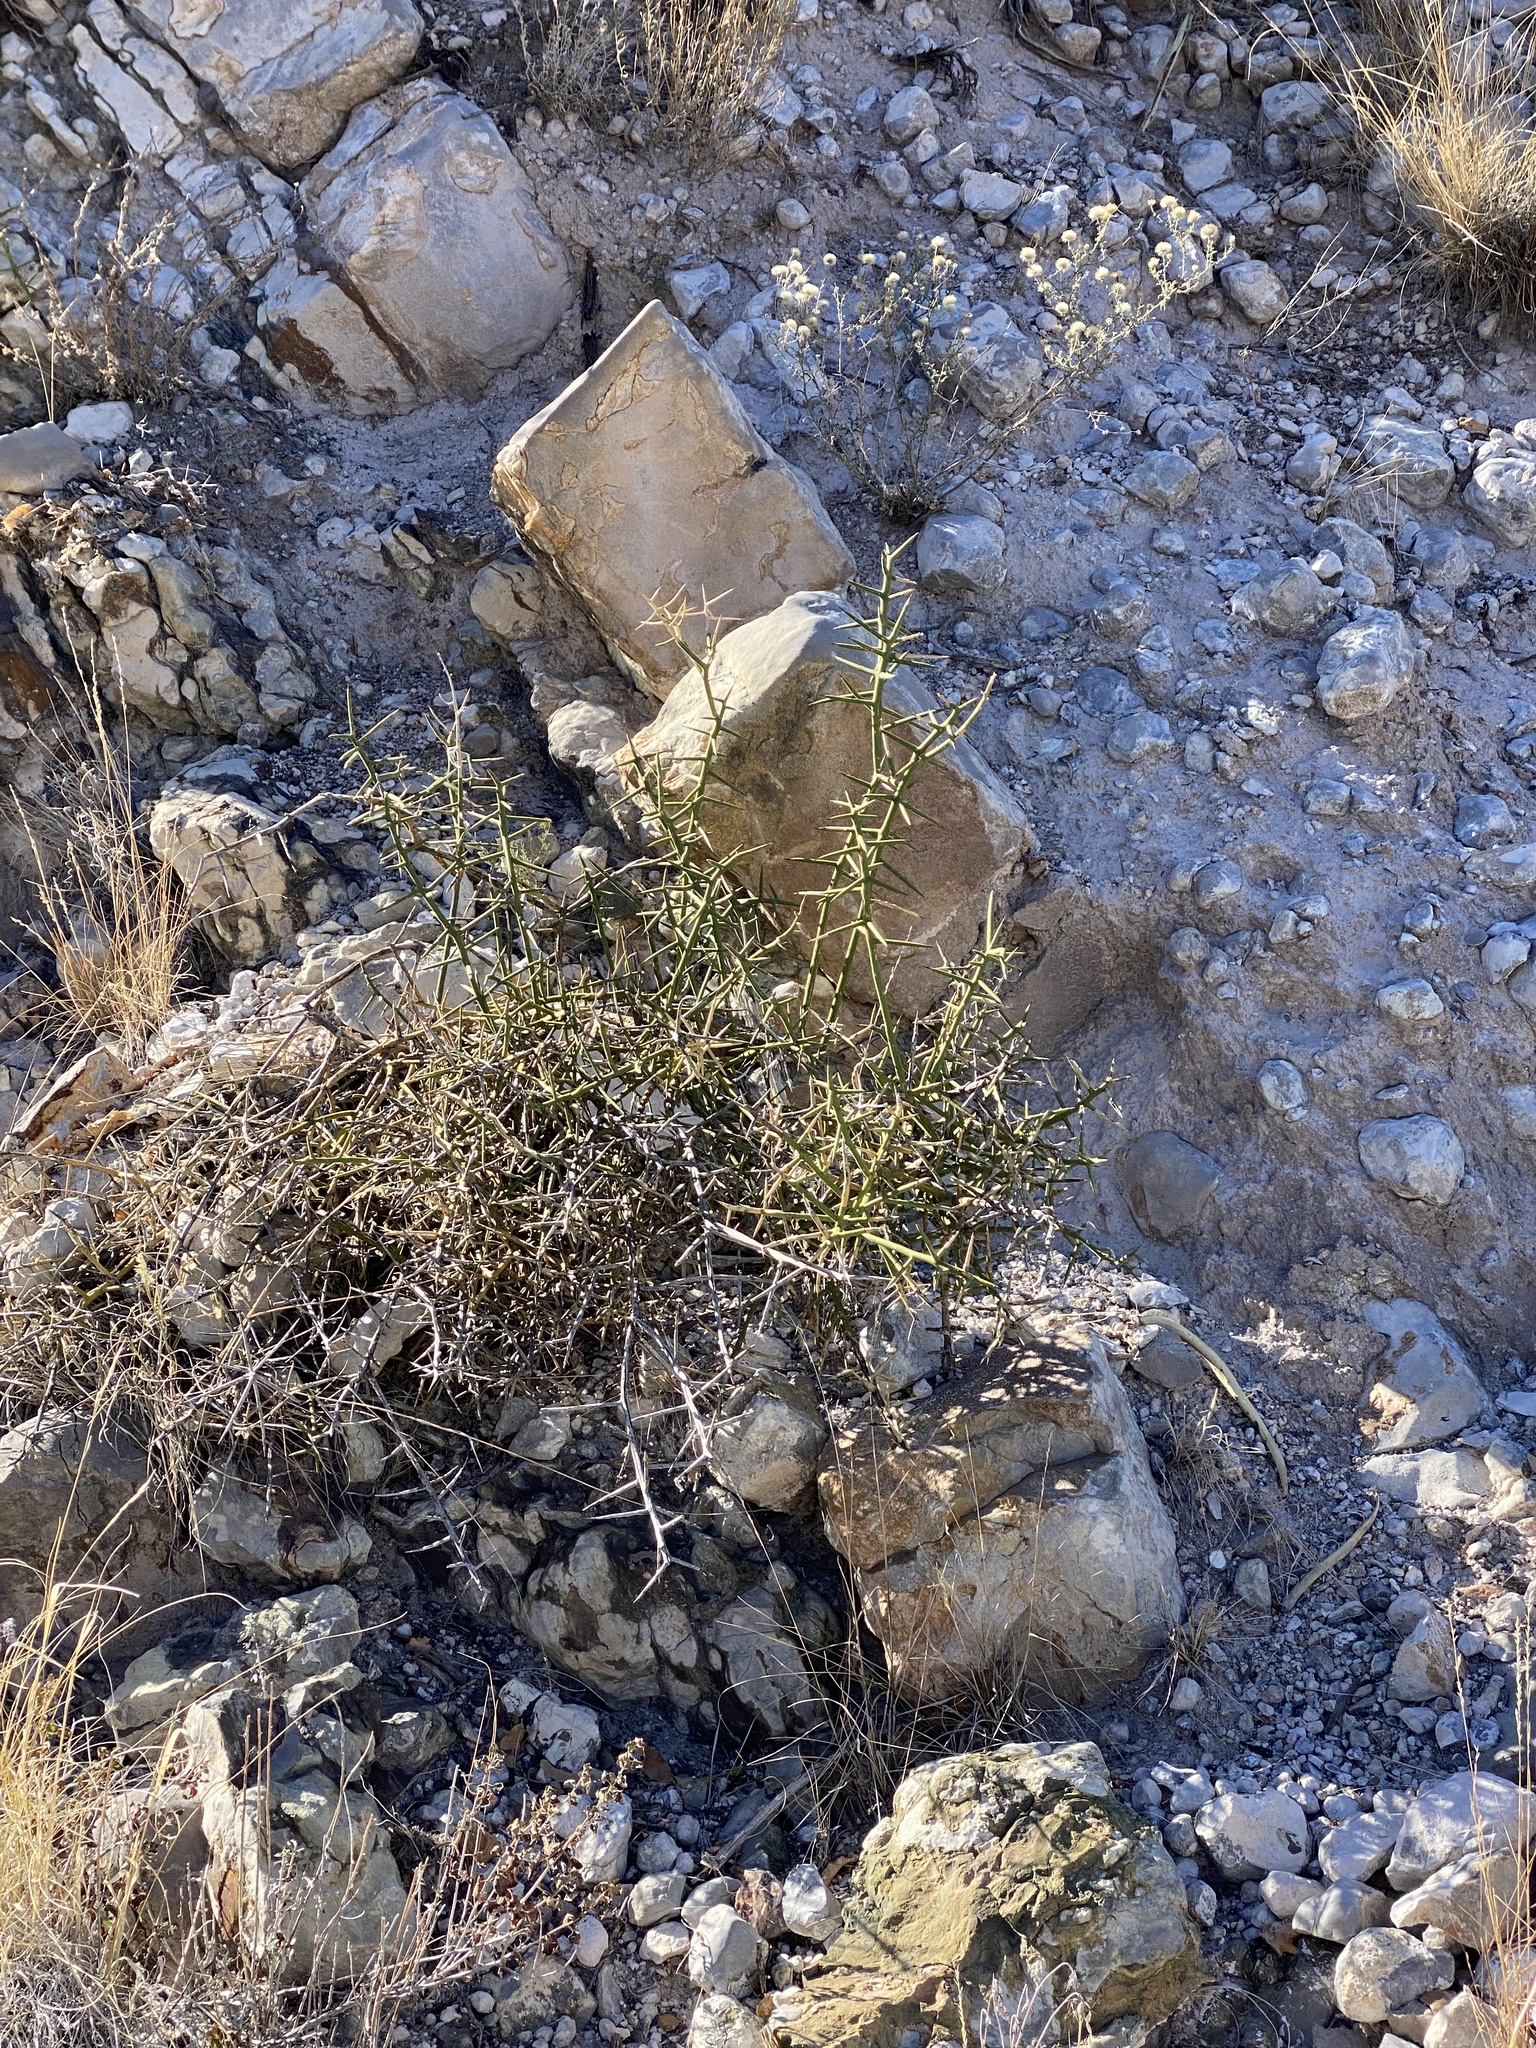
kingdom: Plantae
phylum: Tracheophyta
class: Magnoliopsida
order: Brassicales
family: Koeberliniaceae
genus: Koeberlinia
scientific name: Koeberlinia spinosa
